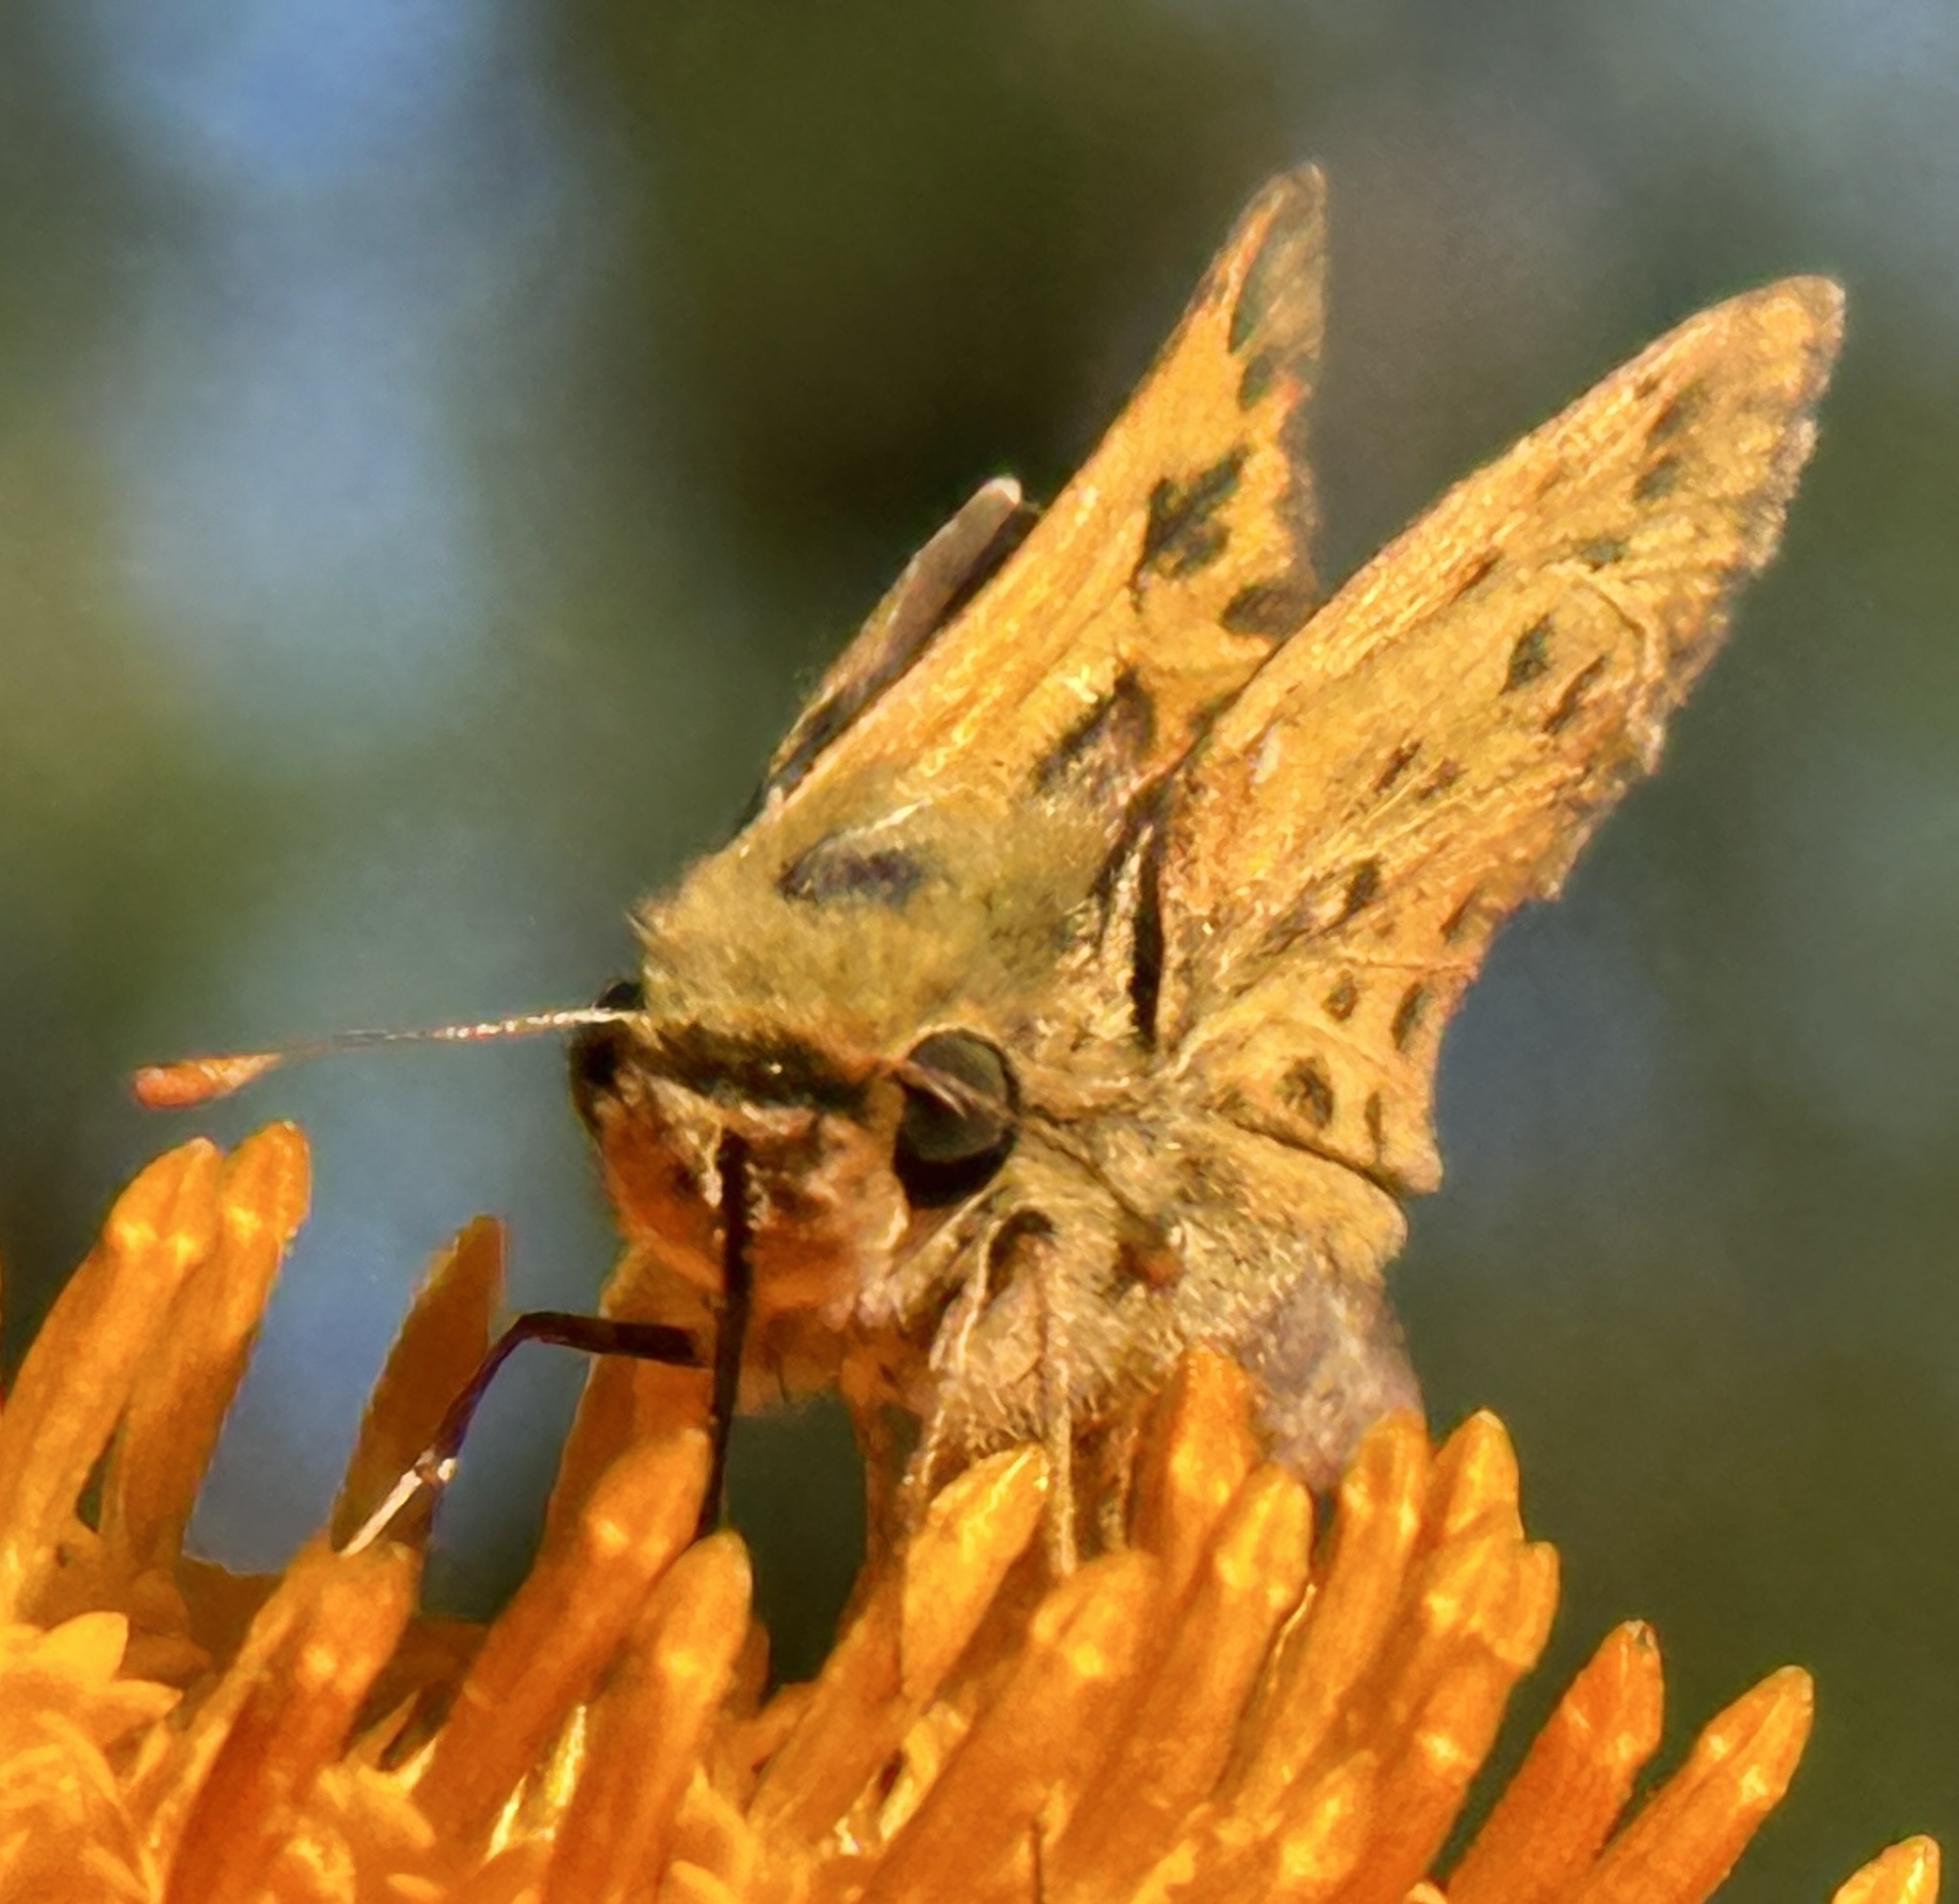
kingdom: Animalia
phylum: Arthropoda
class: Insecta
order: Lepidoptera
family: Hesperiidae
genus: Hylephila
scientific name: Hylephila phyleus
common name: Fiery skipper
